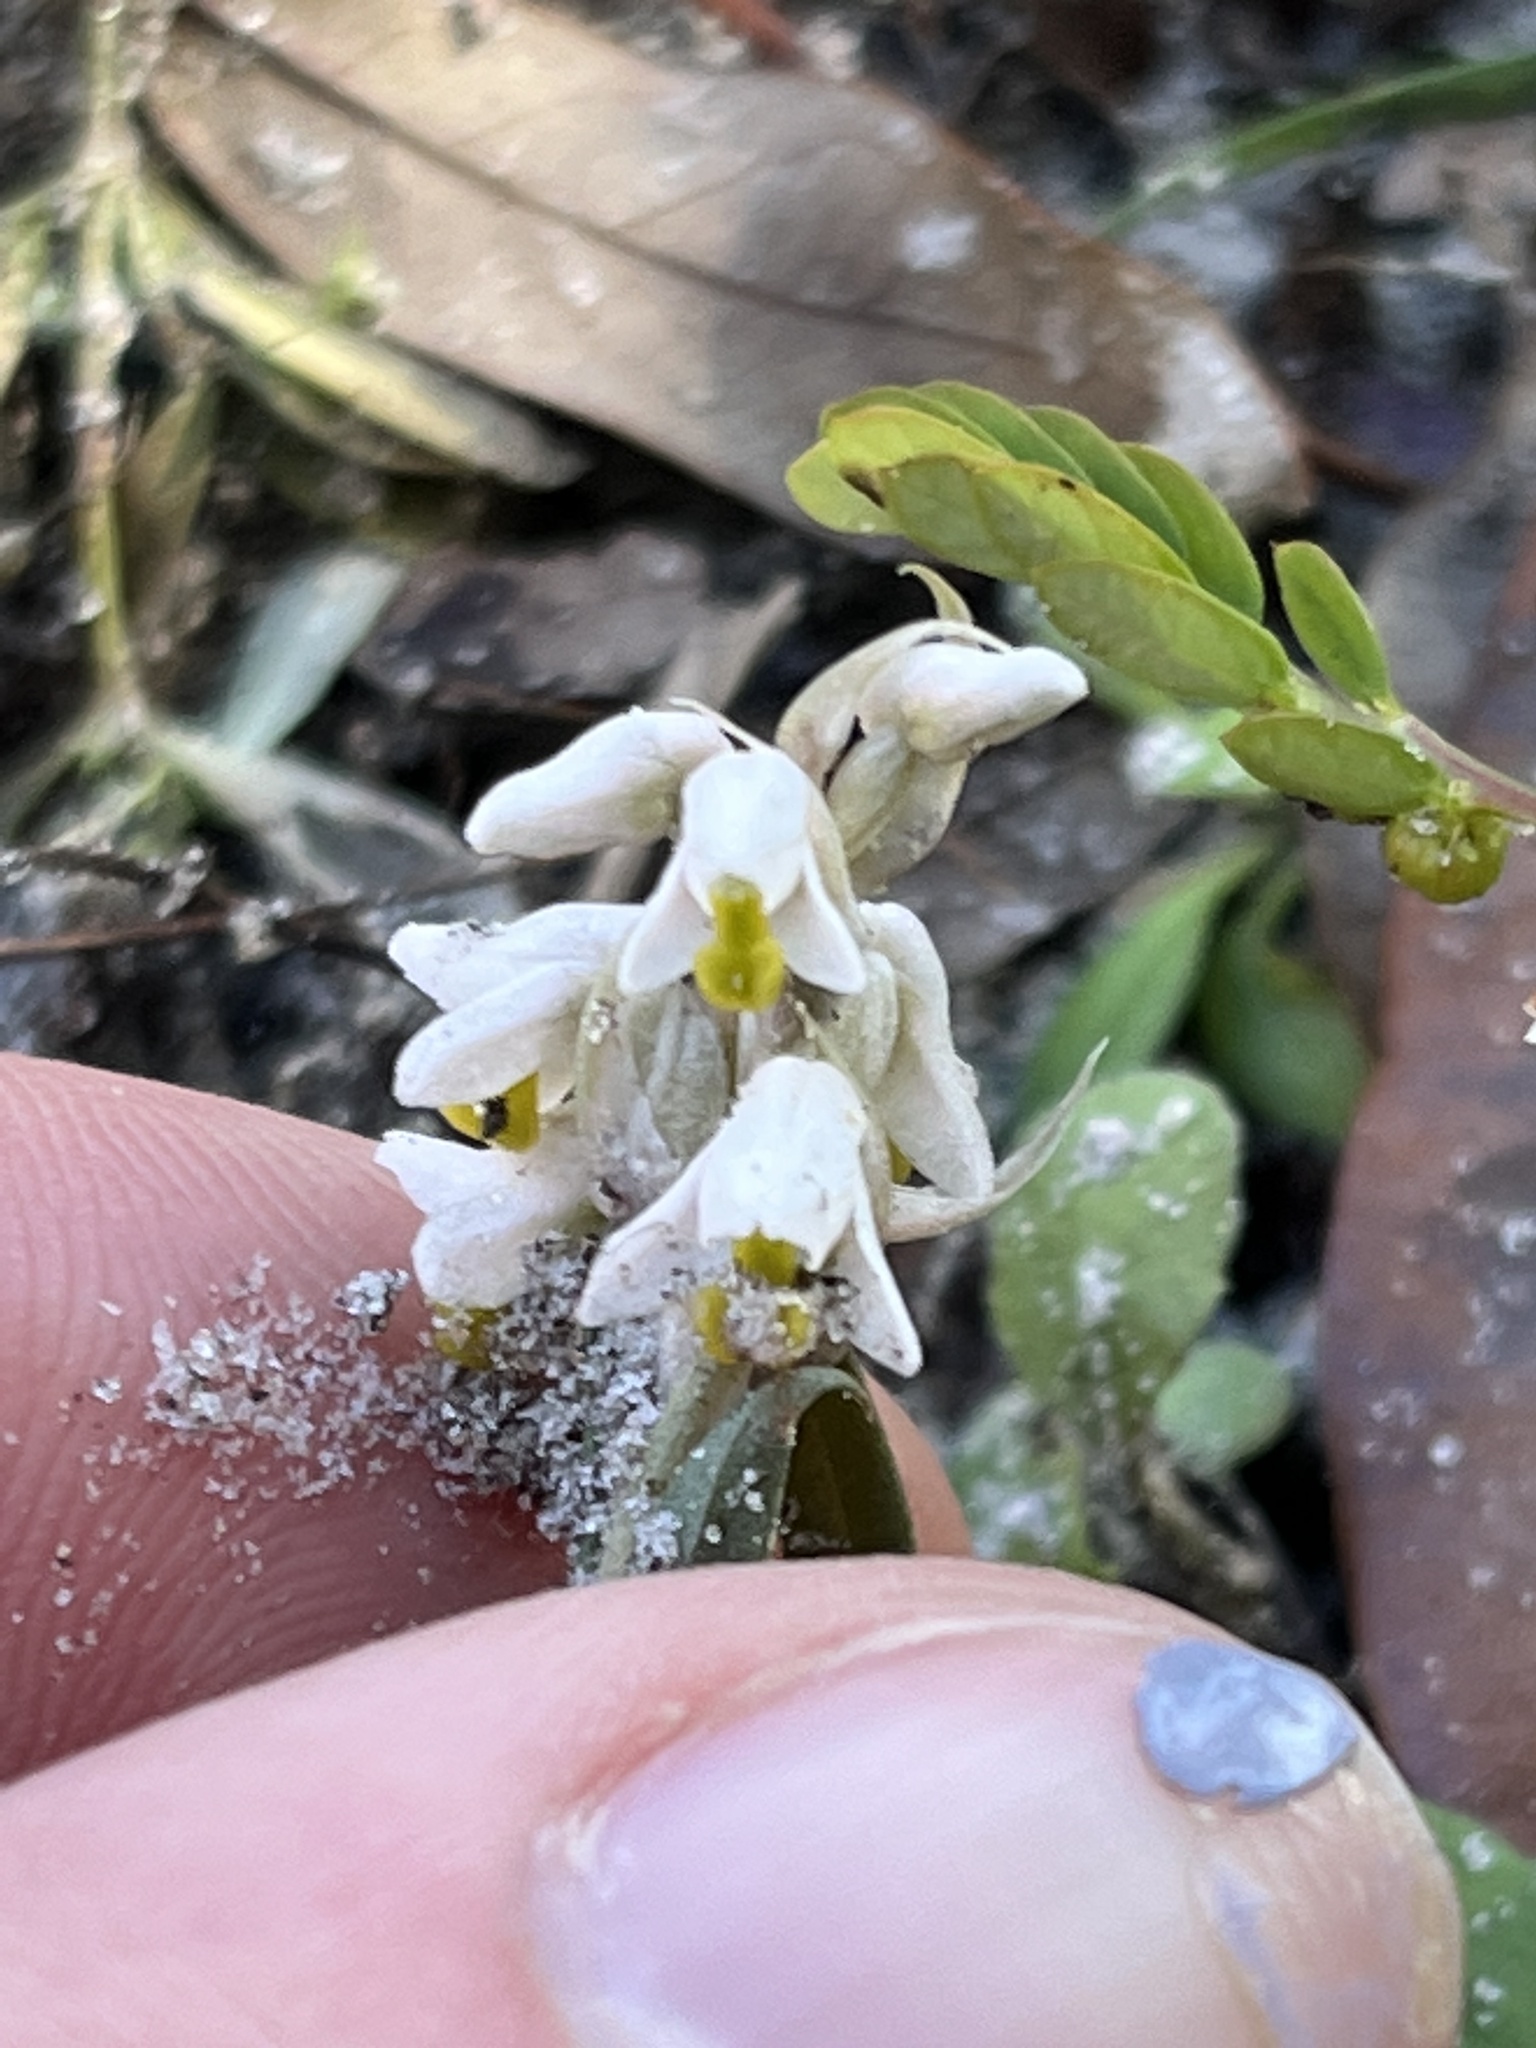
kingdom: Plantae
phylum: Tracheophyta
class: Liliopsida
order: Asparagales
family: Orchidaceae
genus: Zeuxine
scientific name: Zeuxine strateumatica
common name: Soldier's orchid
